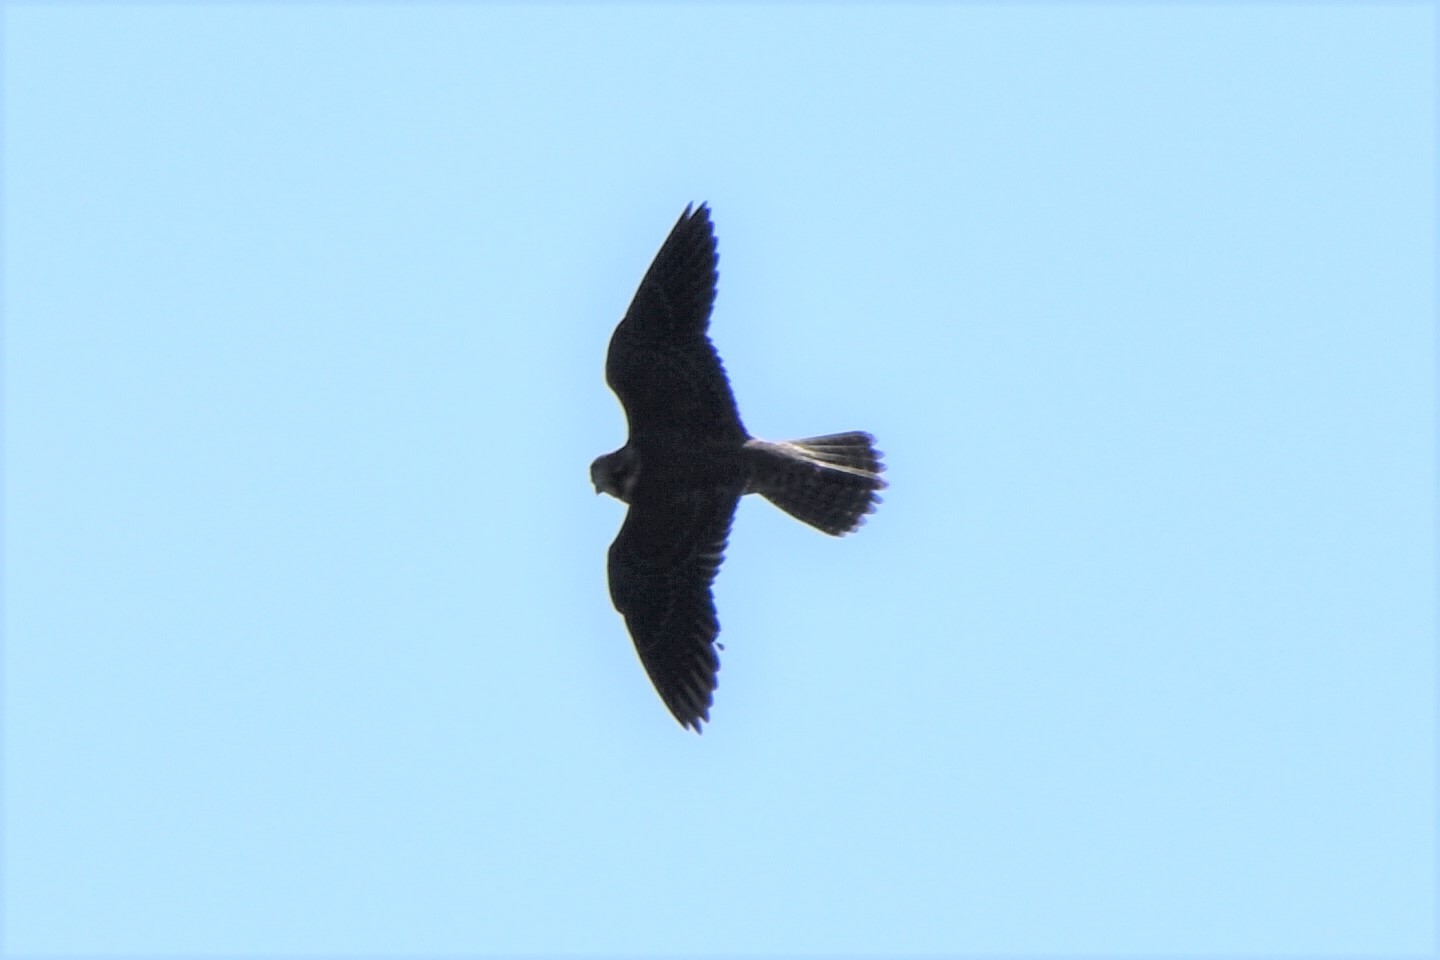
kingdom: Animalia
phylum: Chordata
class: Aves
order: Falconiformes
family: Falconidae
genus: Falco
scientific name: Falco peregrinus
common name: Peregrine falcon
